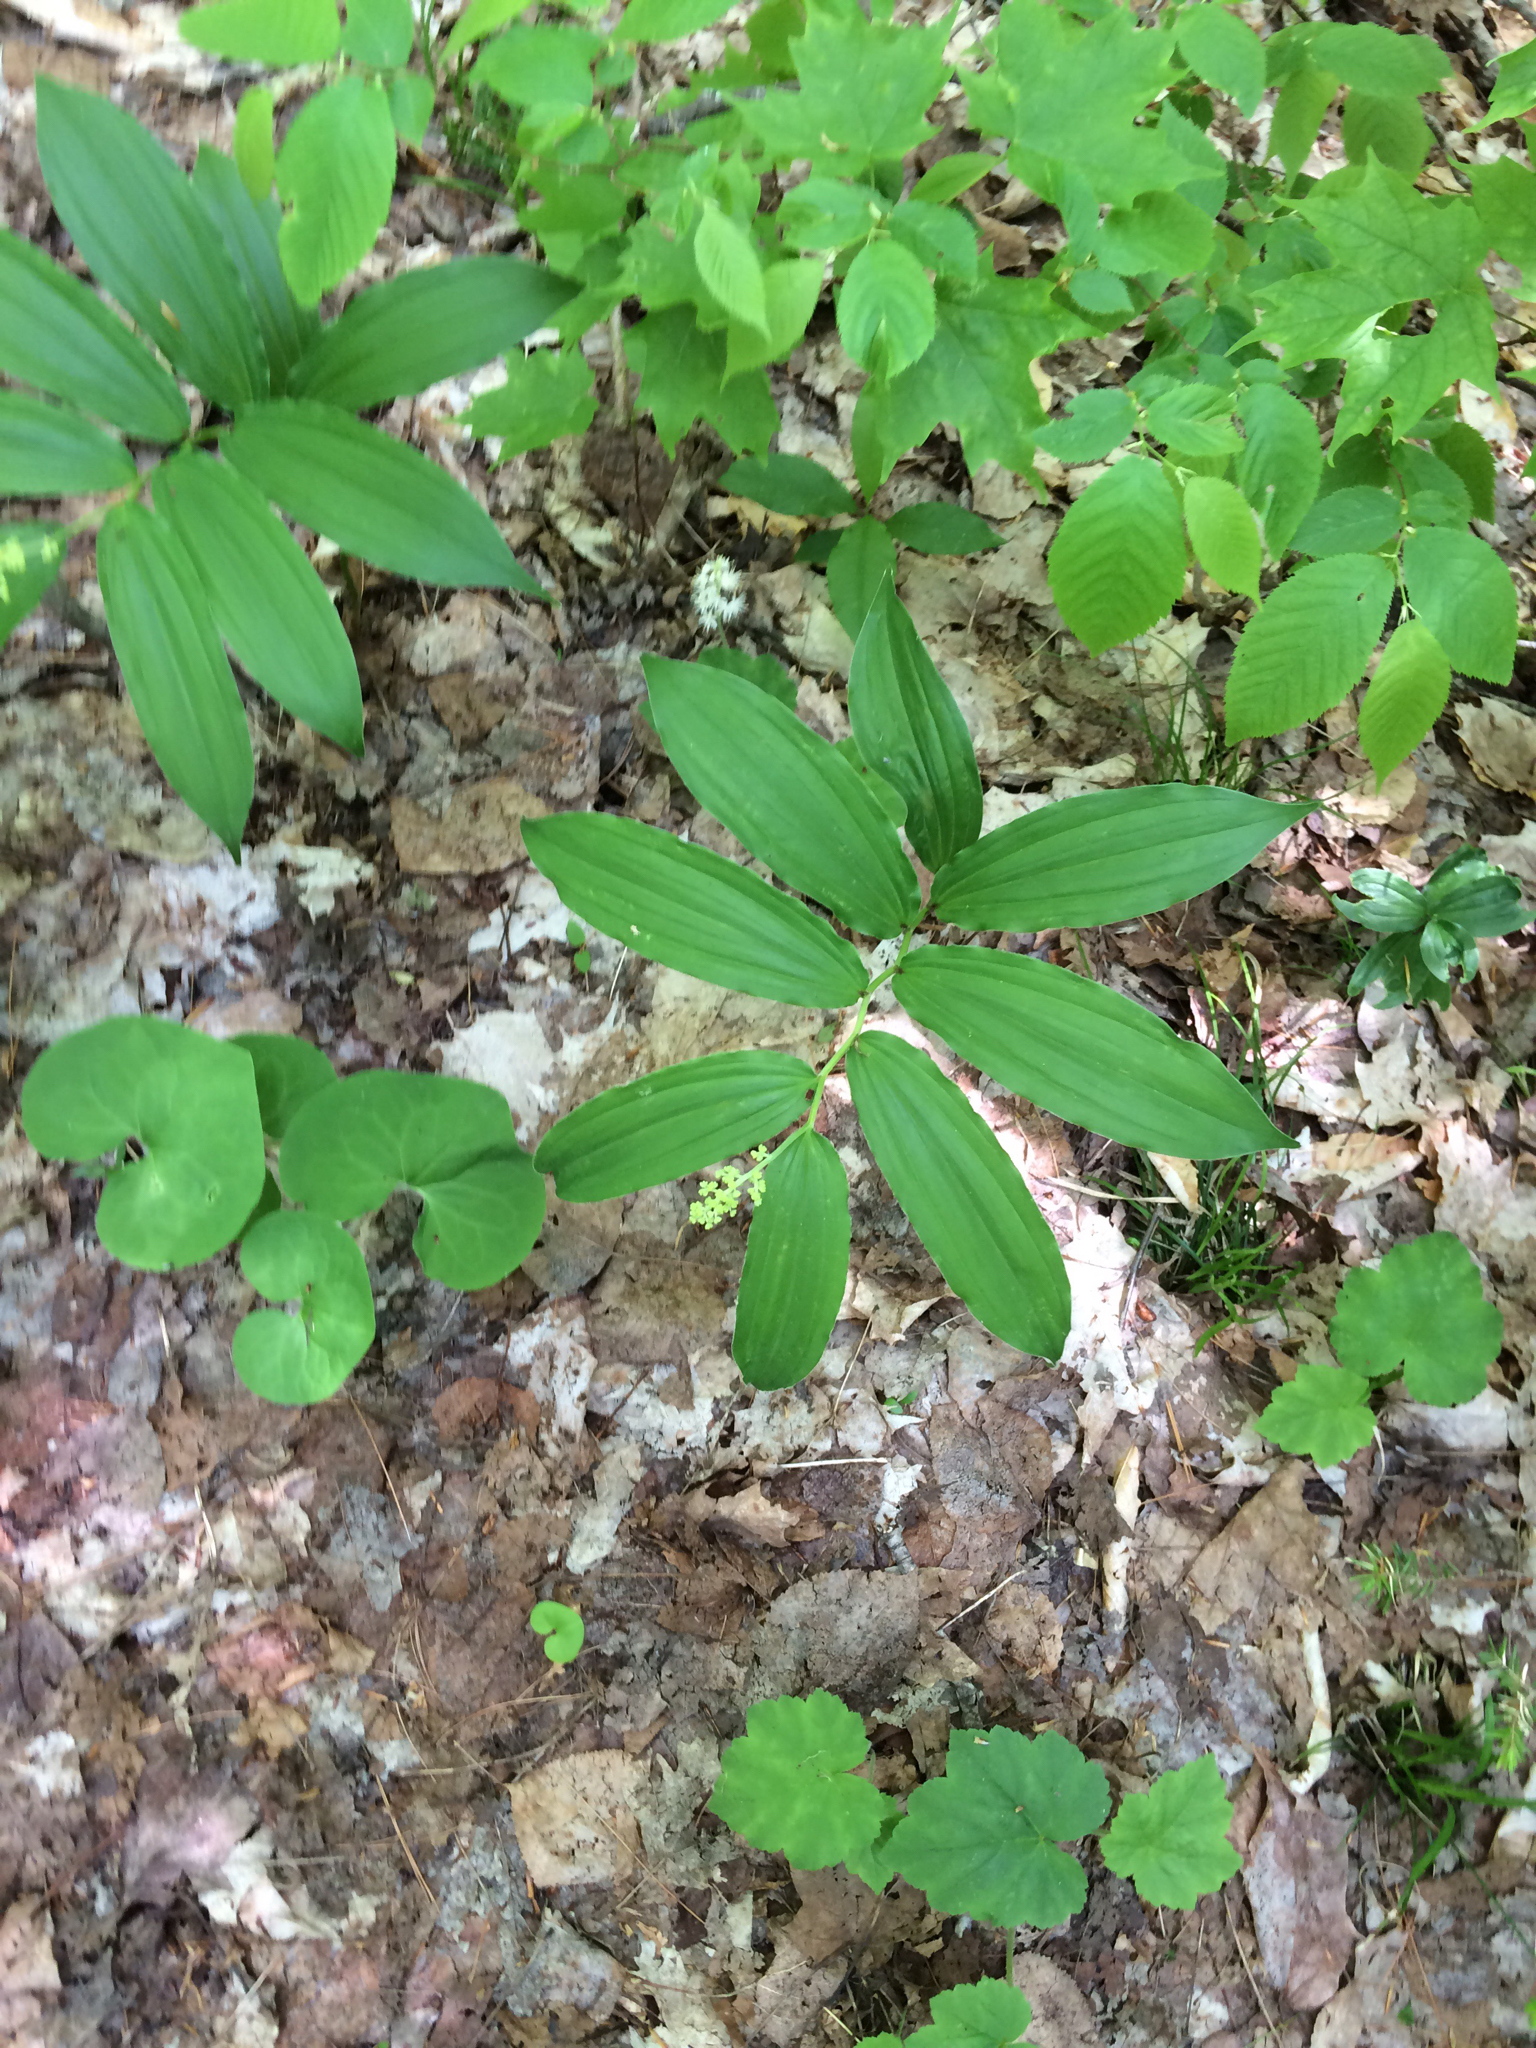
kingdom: Plantae
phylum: Tracheophyta
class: Liliopsida
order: Asparagales
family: Asparagaceae
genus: Maianthemum
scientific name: Maianthemum racemosum
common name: False spikenard
